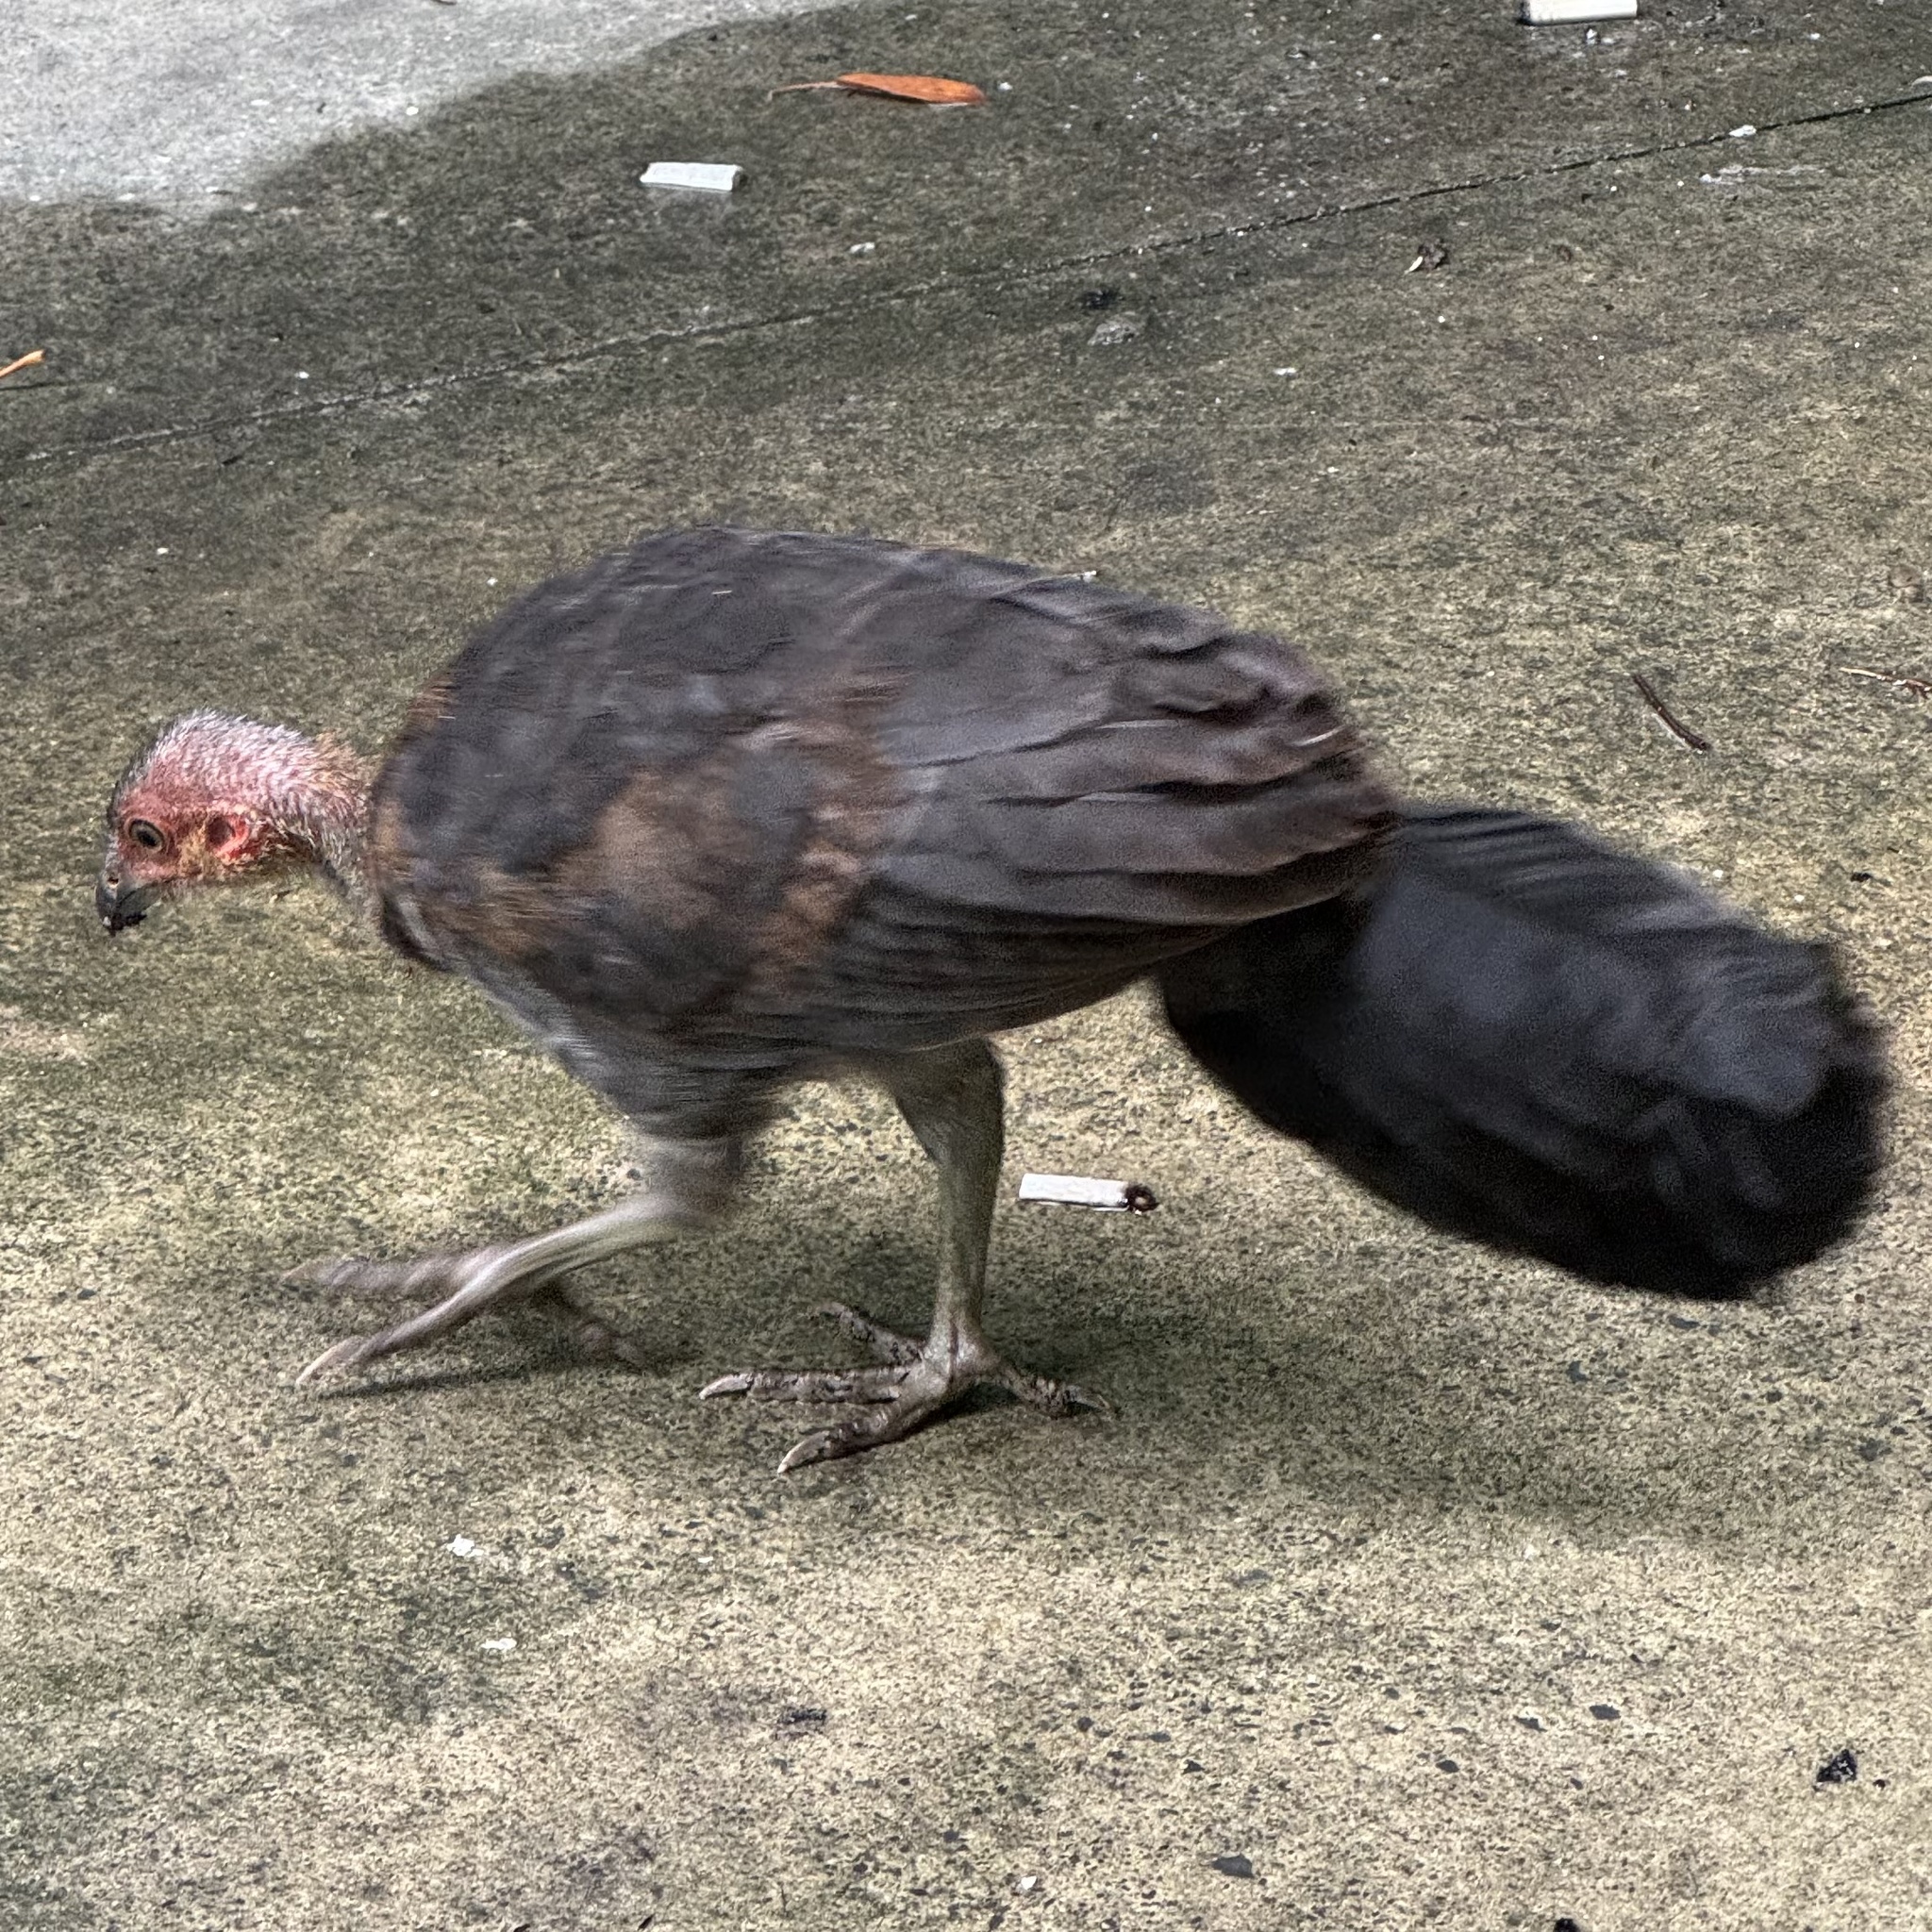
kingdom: Animalia
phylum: Chordata
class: Aves
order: Galliformes
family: Megapodiidae
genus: Alectura
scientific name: Alectura lathami
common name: Australian brushturkey
